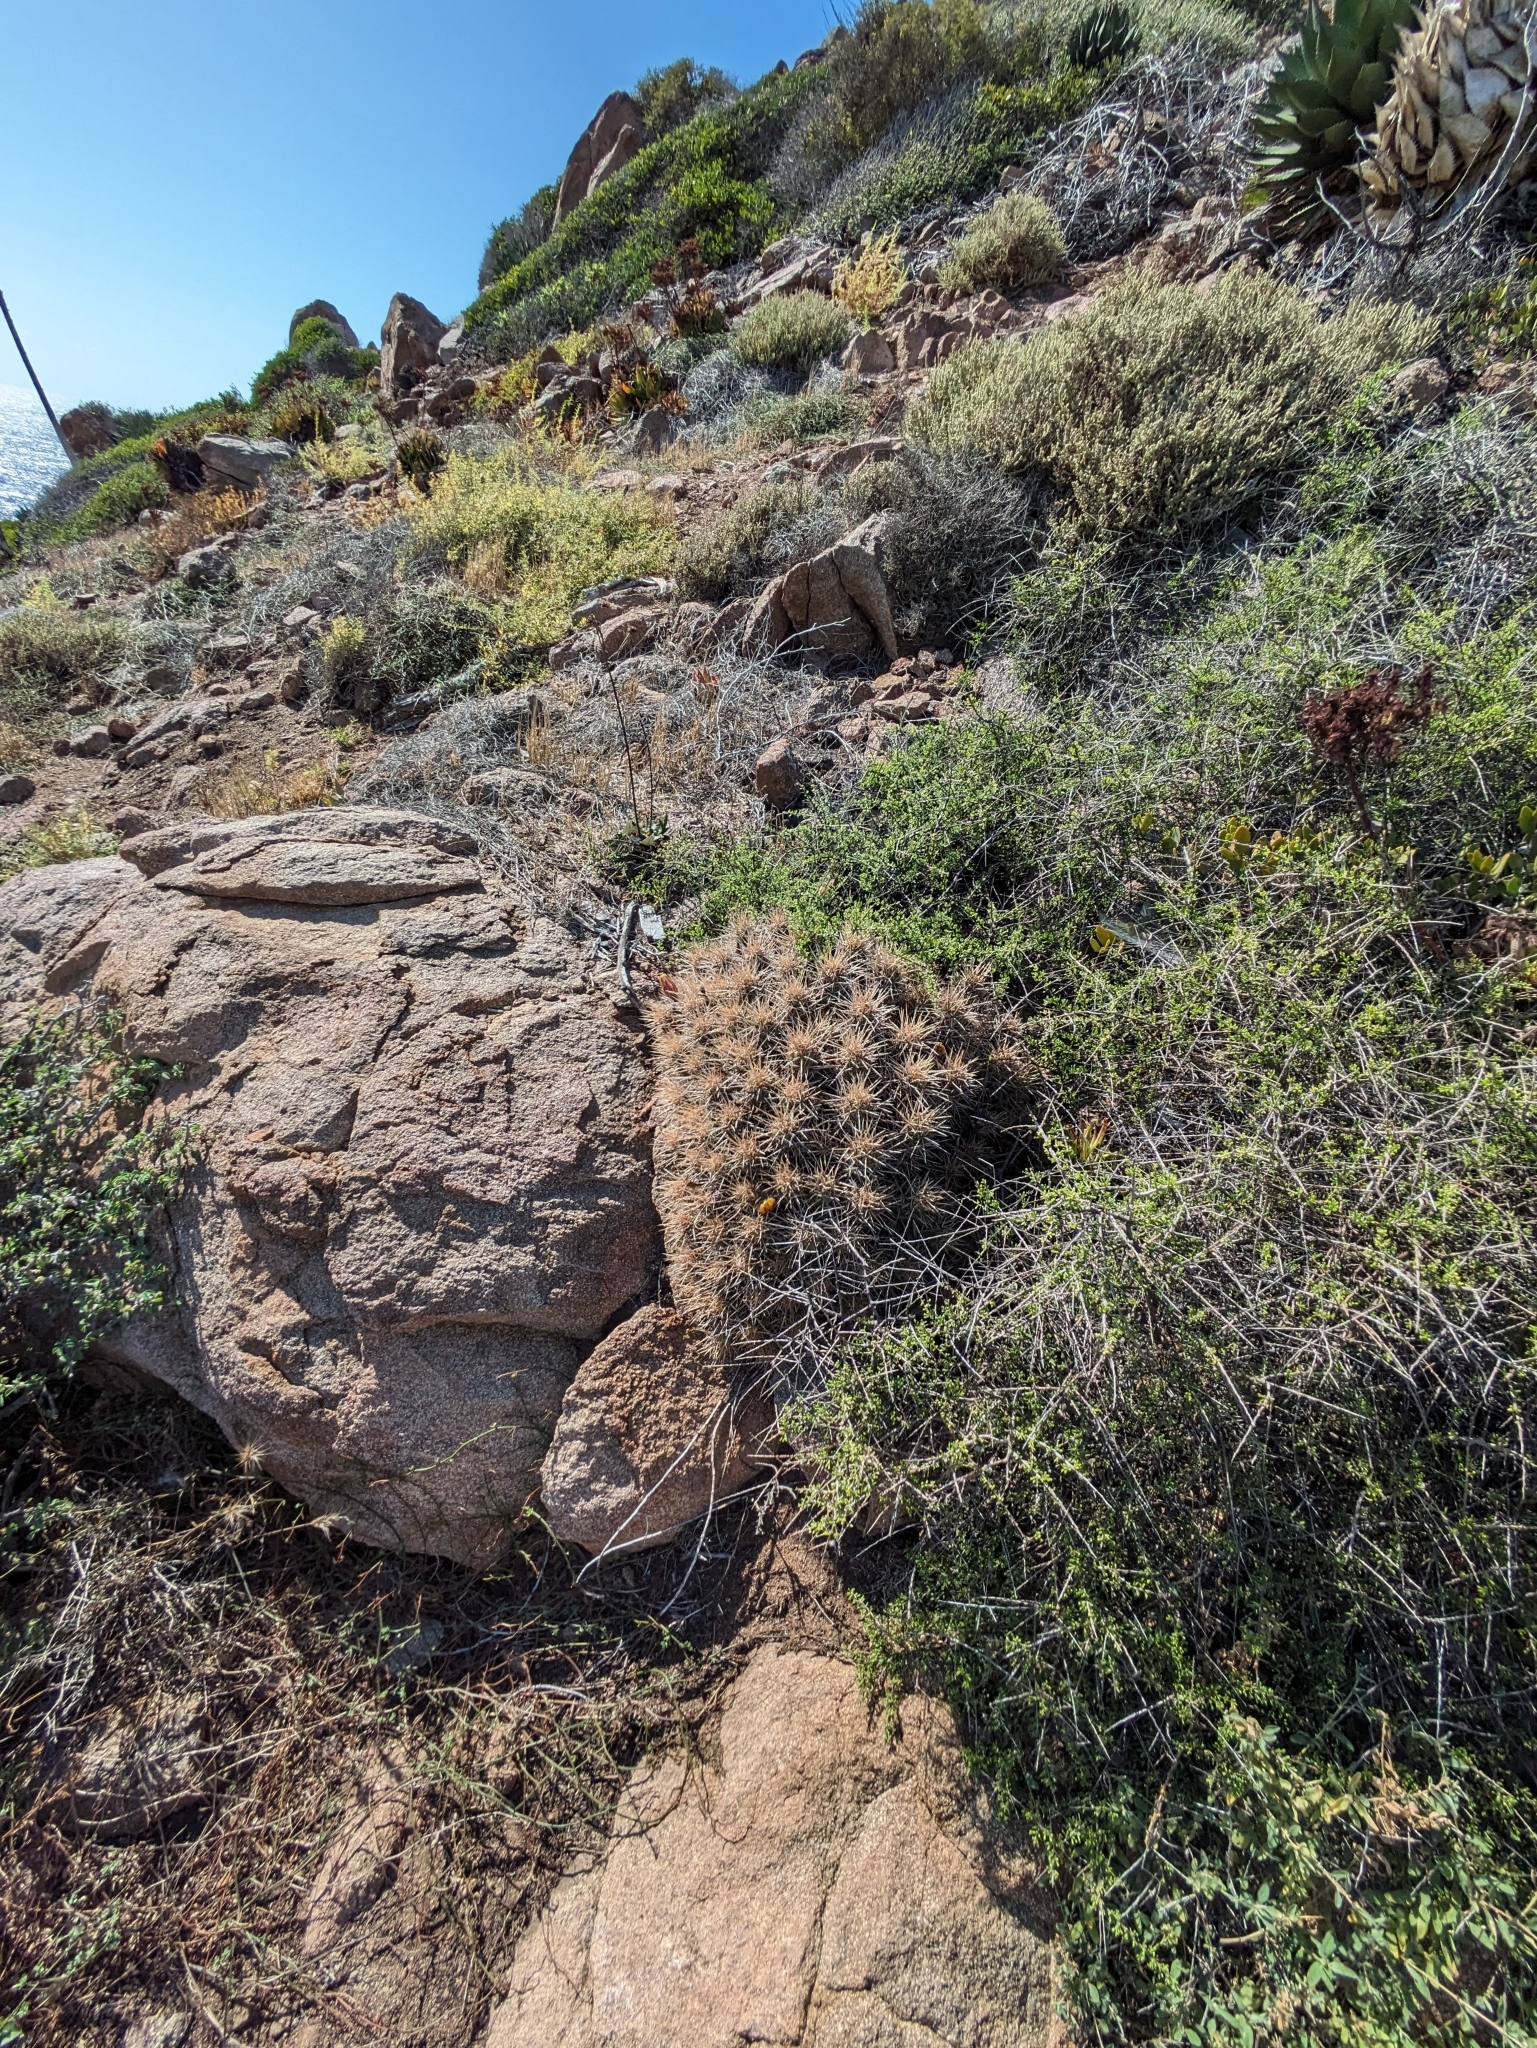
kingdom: Plantae
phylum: Tracheophyta
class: Magnoliopsida
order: Caryophyllales
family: Cactaceae
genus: Echinocereus
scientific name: Echinocereus maritimus
